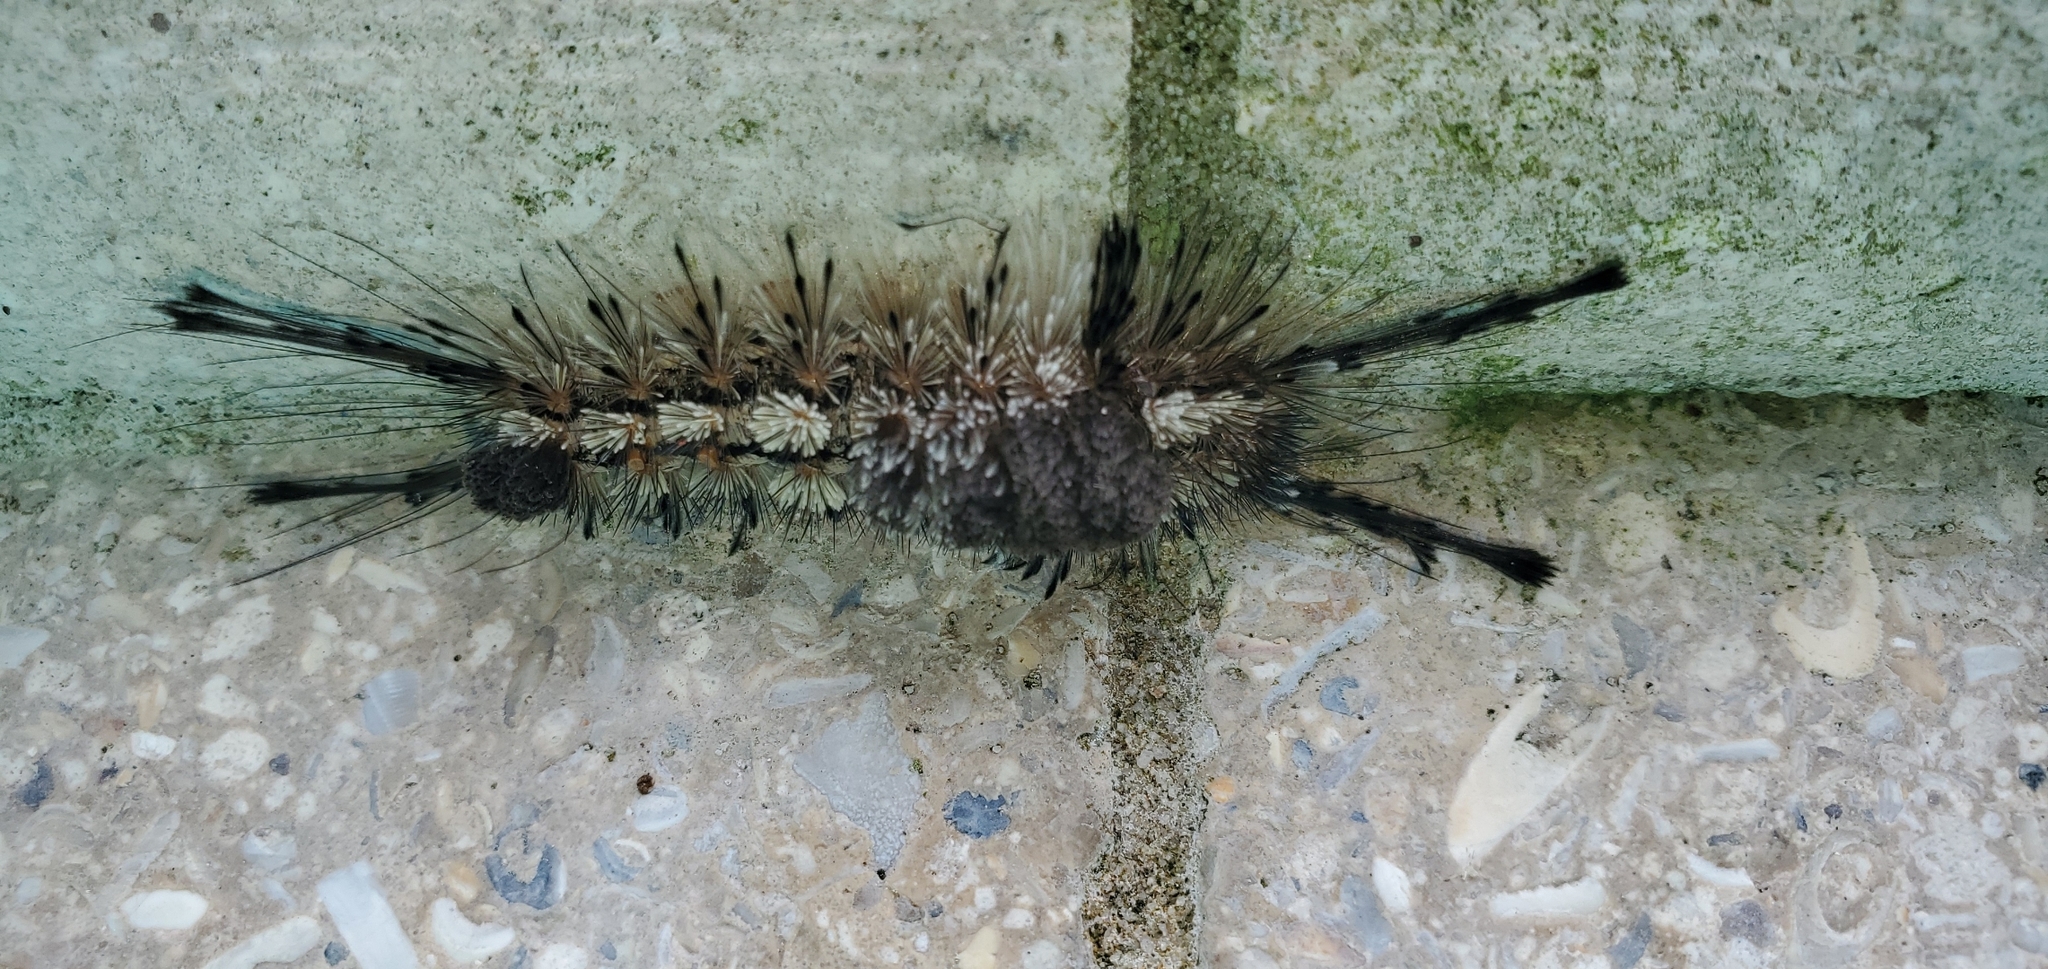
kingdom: Animalia
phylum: Arthropoda
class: Insecta
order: Lepidoptera
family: Erebidae
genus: Dasychira
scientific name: Dasychira meridionalis
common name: Southern tussock moth
